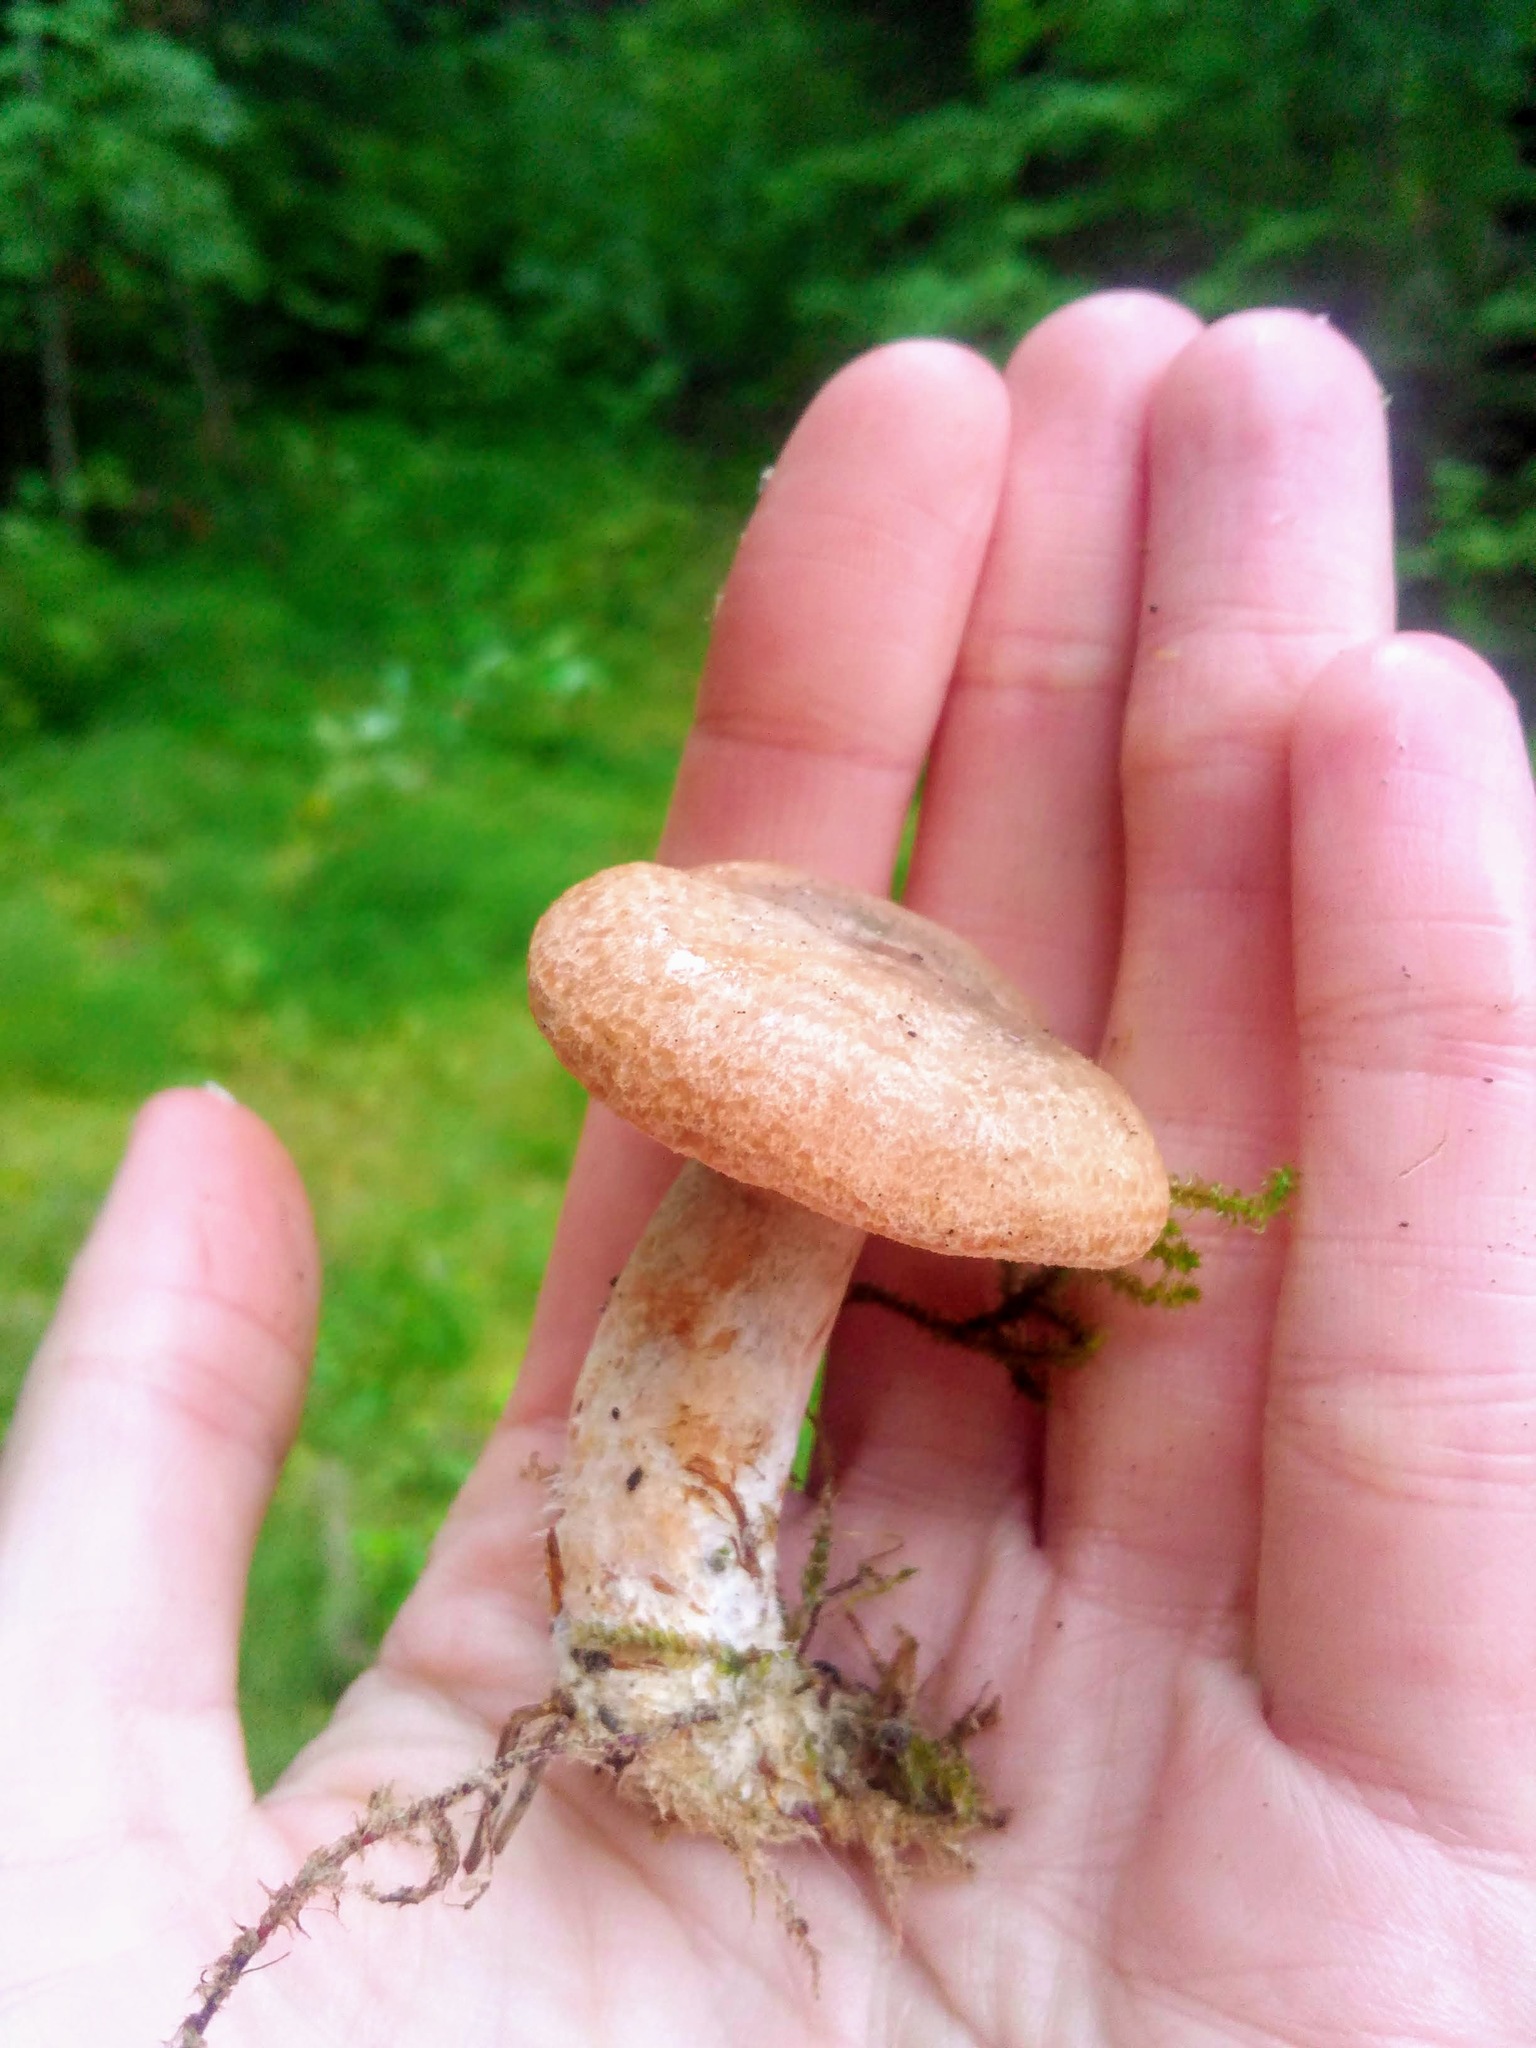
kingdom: Fungi
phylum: Basidiomycota
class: Agaricomycetes
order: Russulales
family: Russulaceae
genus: Lactarius
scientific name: Lactarius deliciosus
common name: Saffron milk-cap
